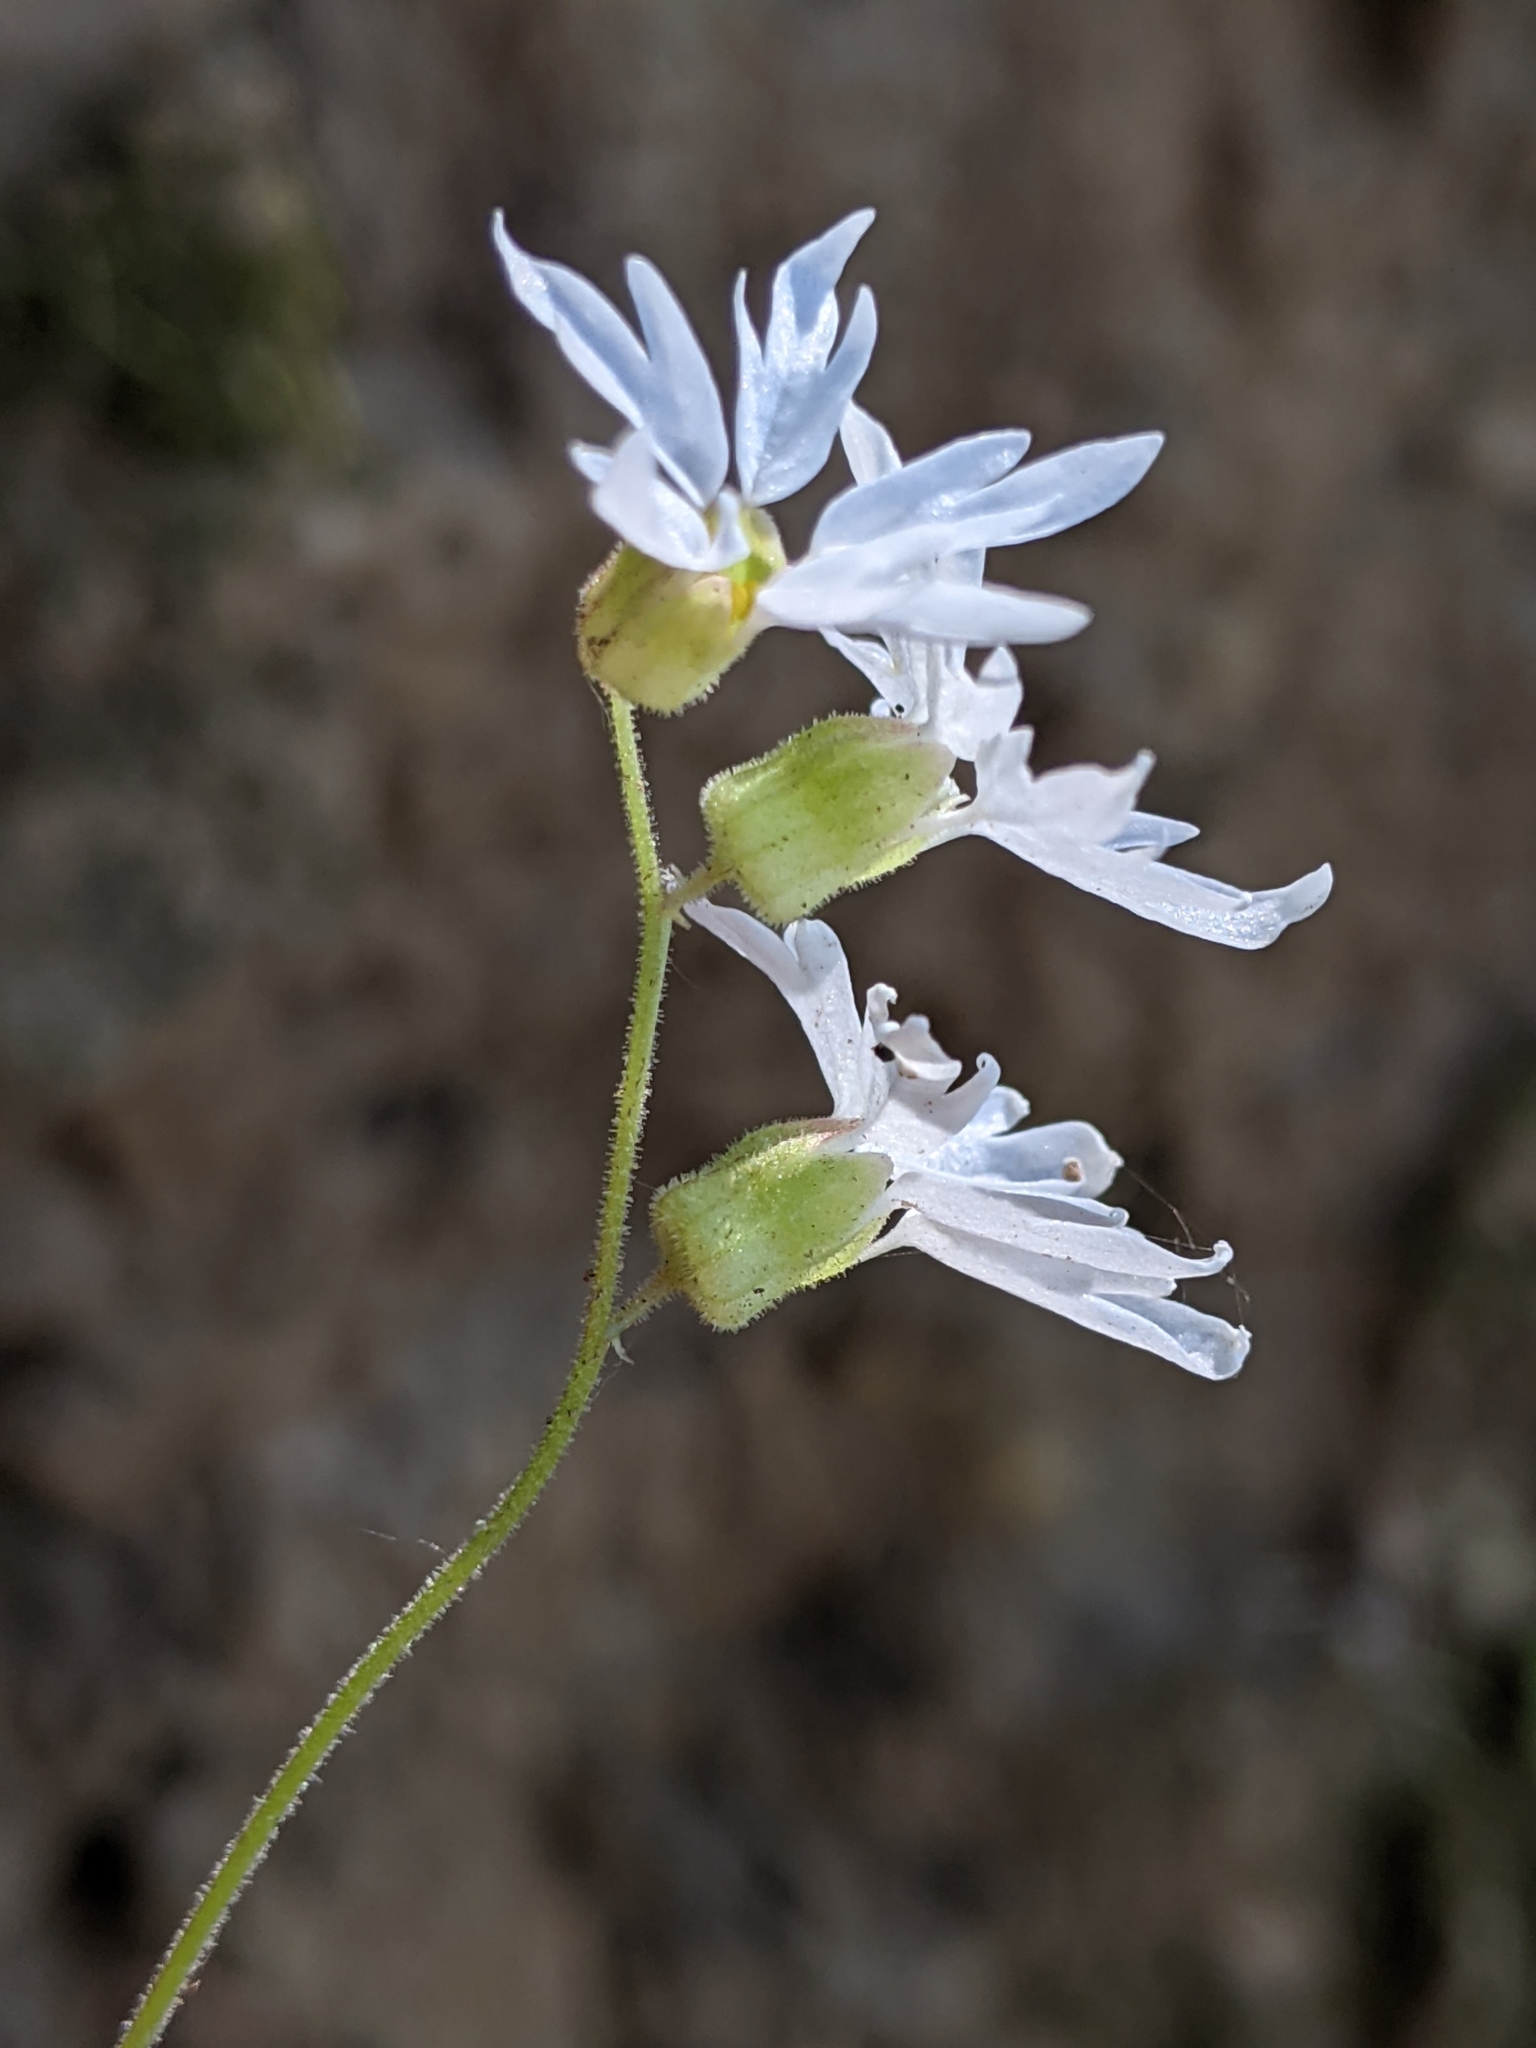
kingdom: Plantae
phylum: Tracheophyta
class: Magnoliopsida
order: Saxifragales
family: Saxifragaceae
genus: Lithophragma
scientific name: Lithophragma heterophyllum
